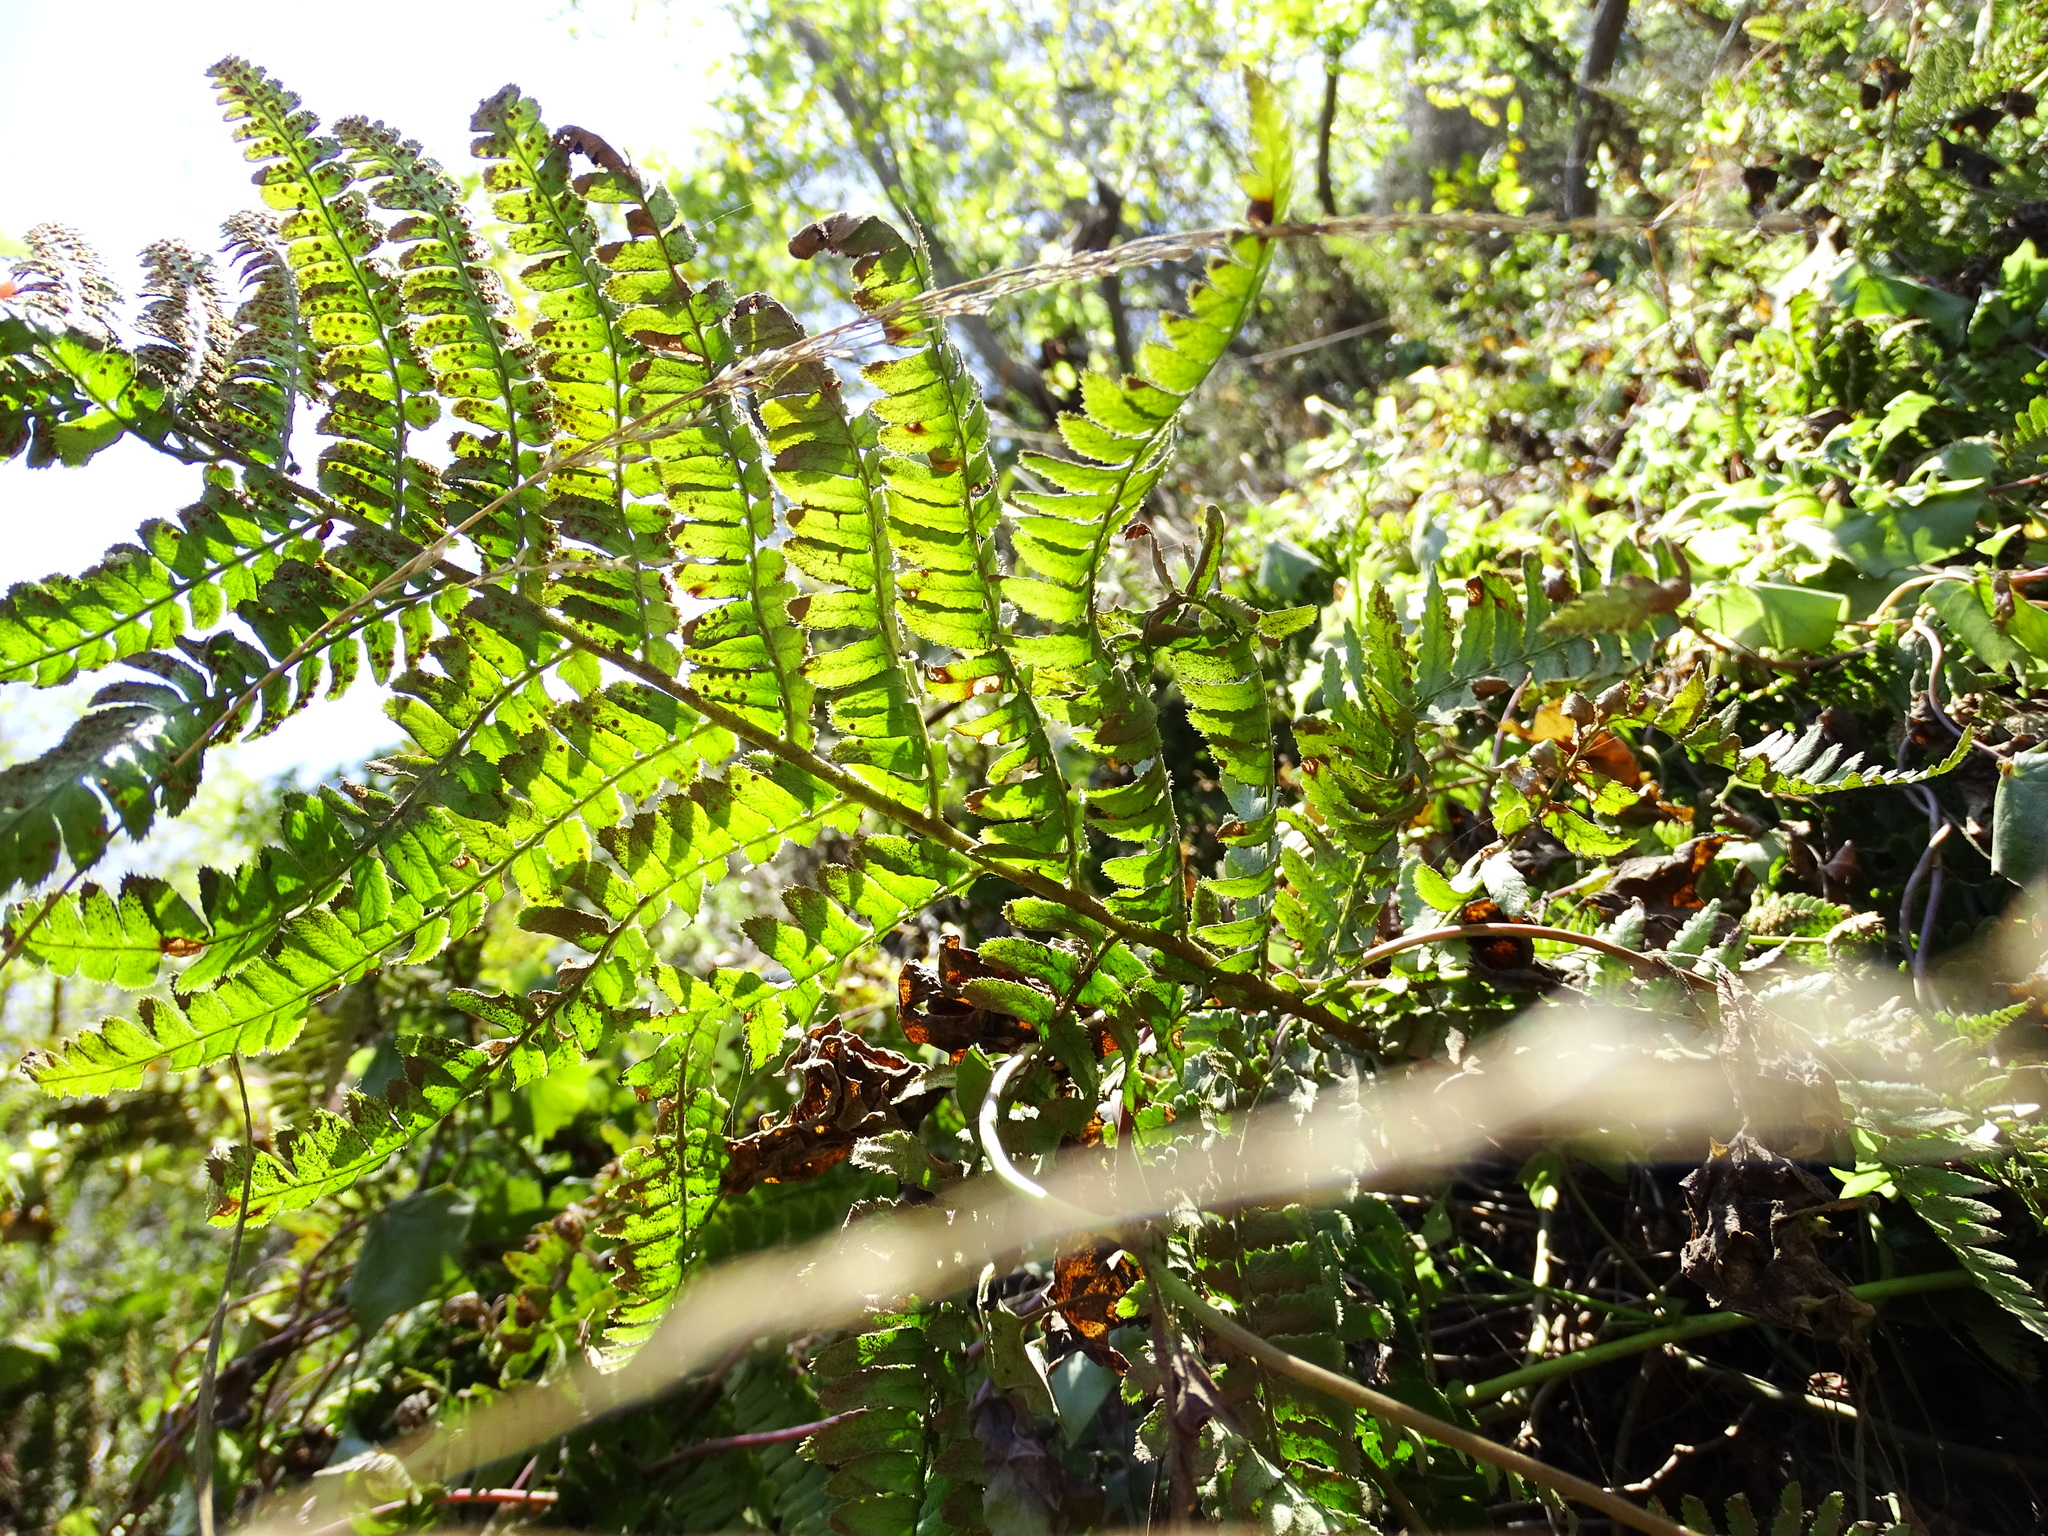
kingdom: Plantae
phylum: Tracheophyta
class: Polypodiopsida
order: Polypodiales
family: Dryopteridaceae
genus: Dryopteris
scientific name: Dryopteris arguta
